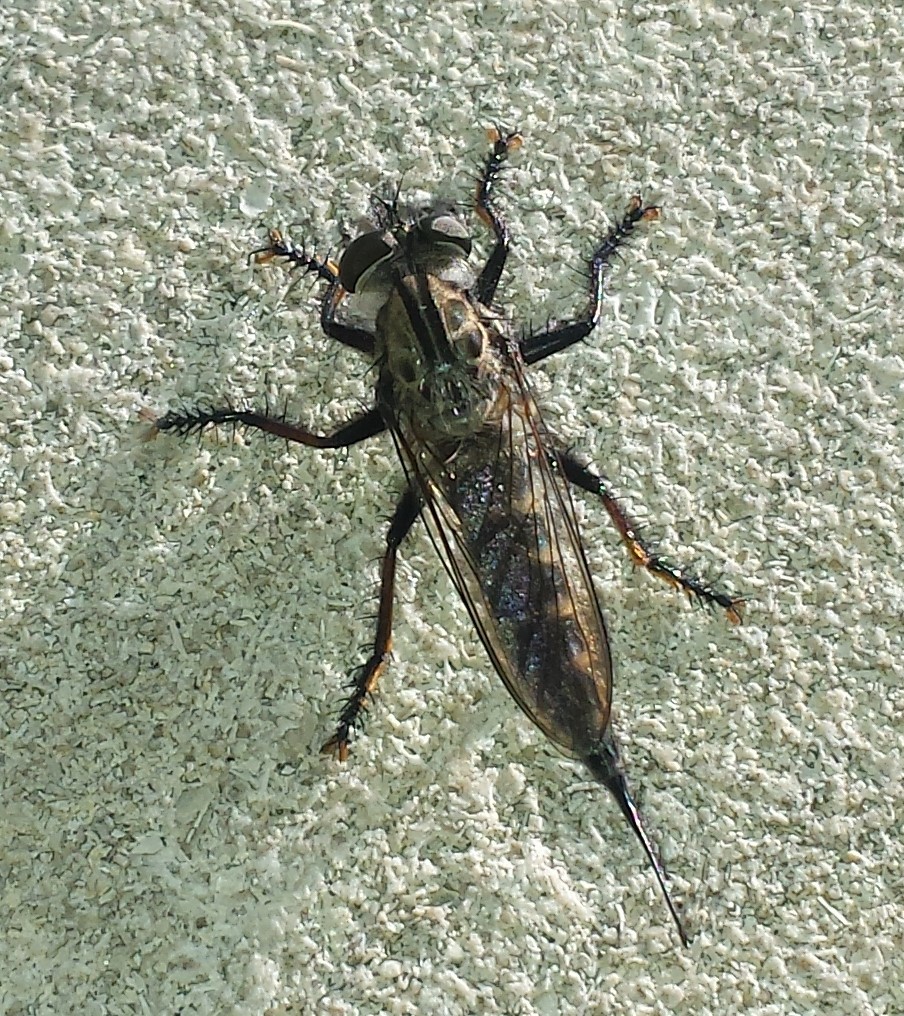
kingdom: Animalia
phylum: Arthropoda
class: Insecta
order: Diptera
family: Asilidae
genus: Efferia
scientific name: Efferia aestuans
